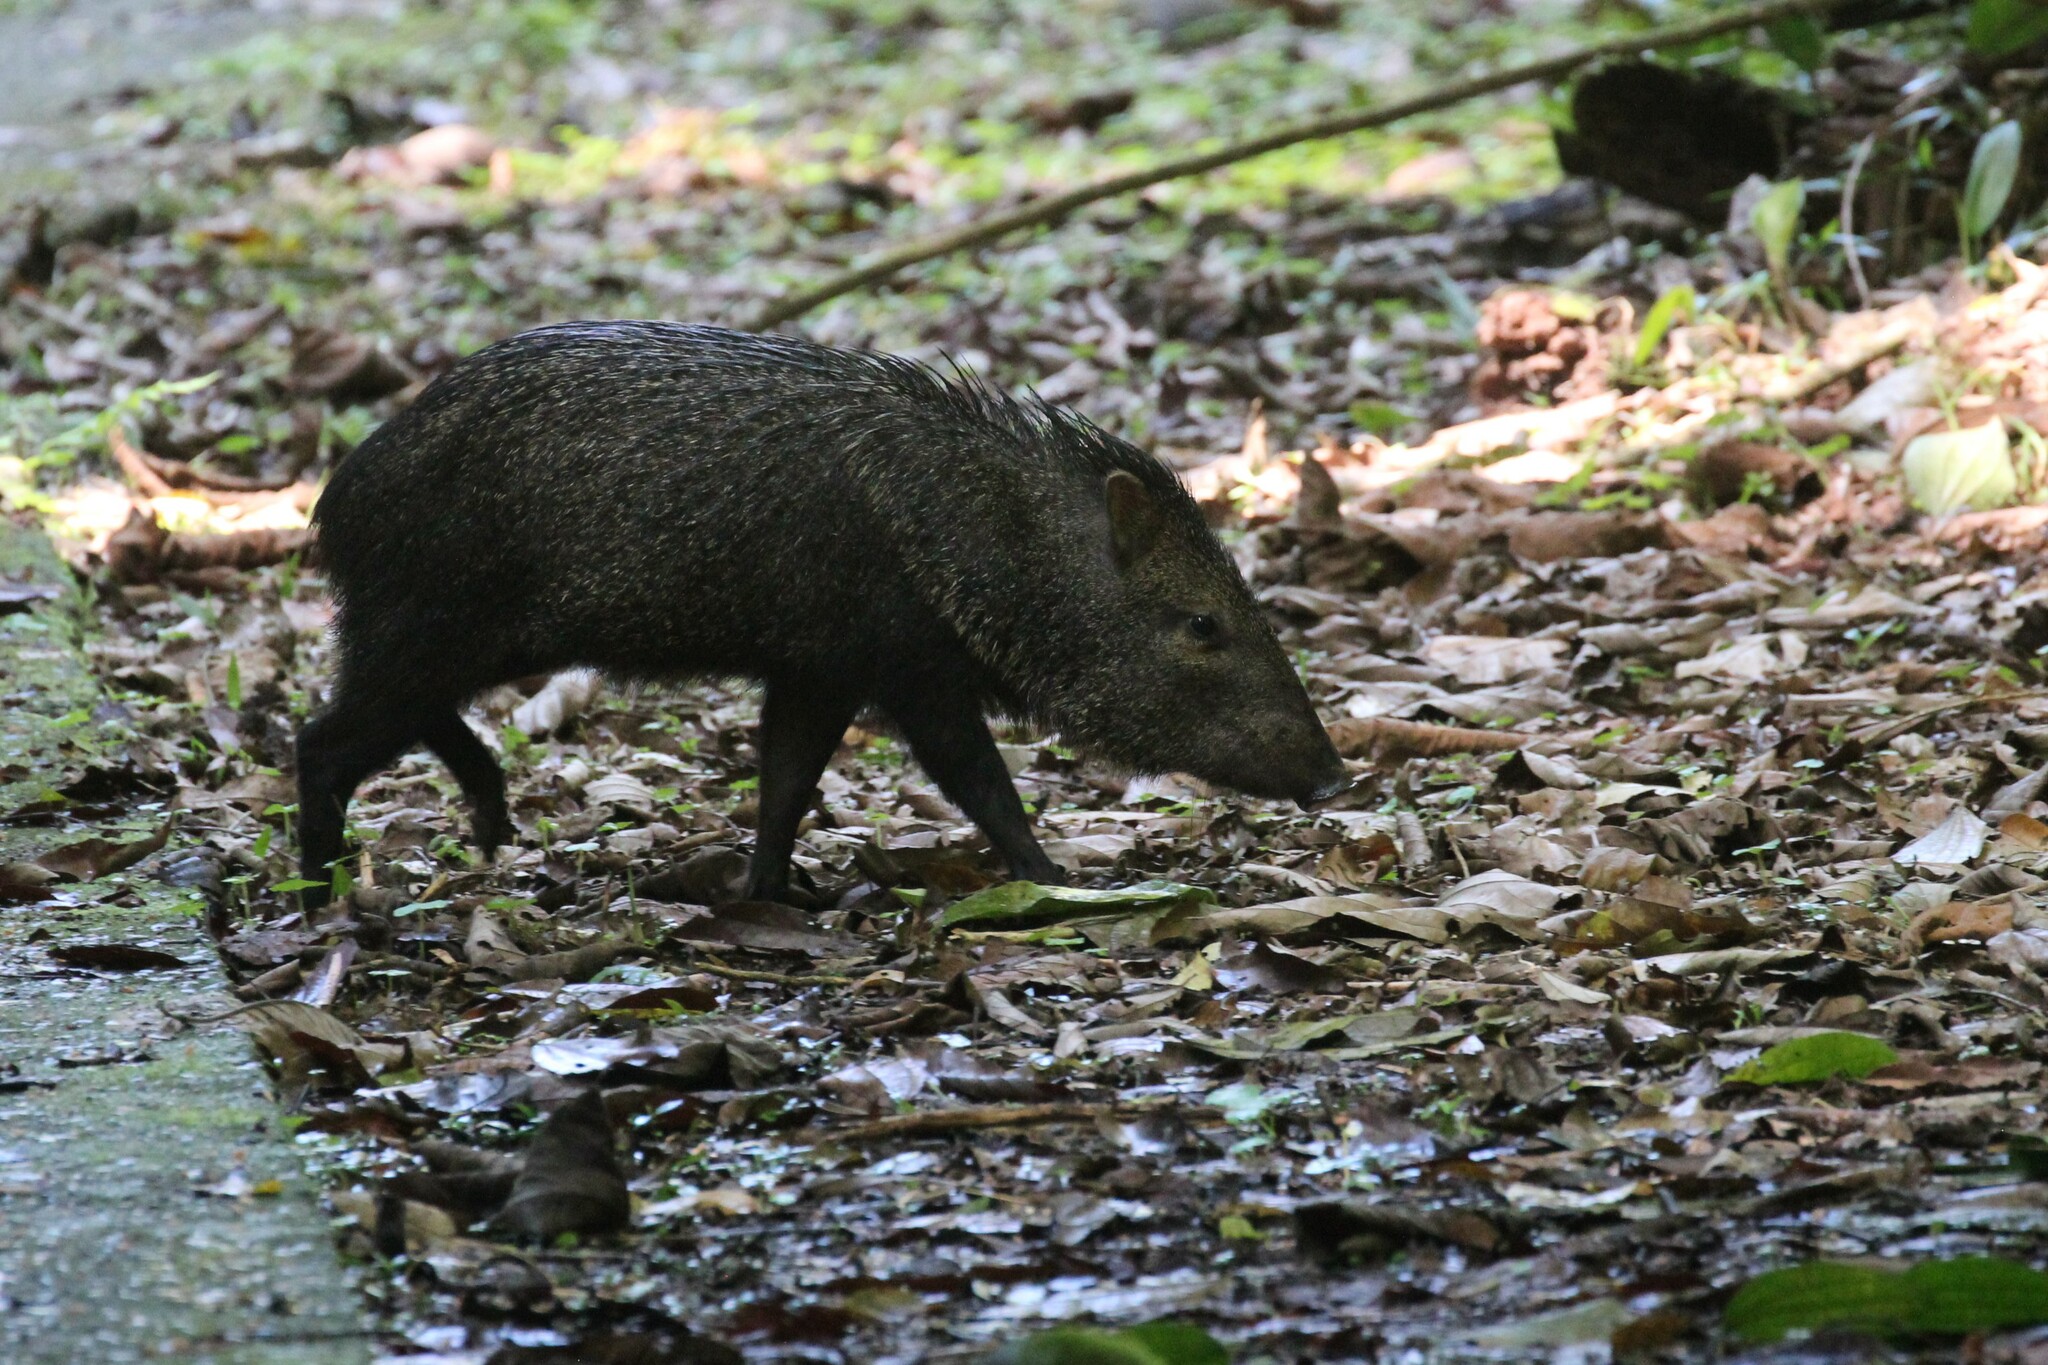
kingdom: Animalia
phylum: Chordata
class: Mammalia
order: Artiodactyla
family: Tayassuidae
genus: Pecari
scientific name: Pecari tajacu
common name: Collared peccary
